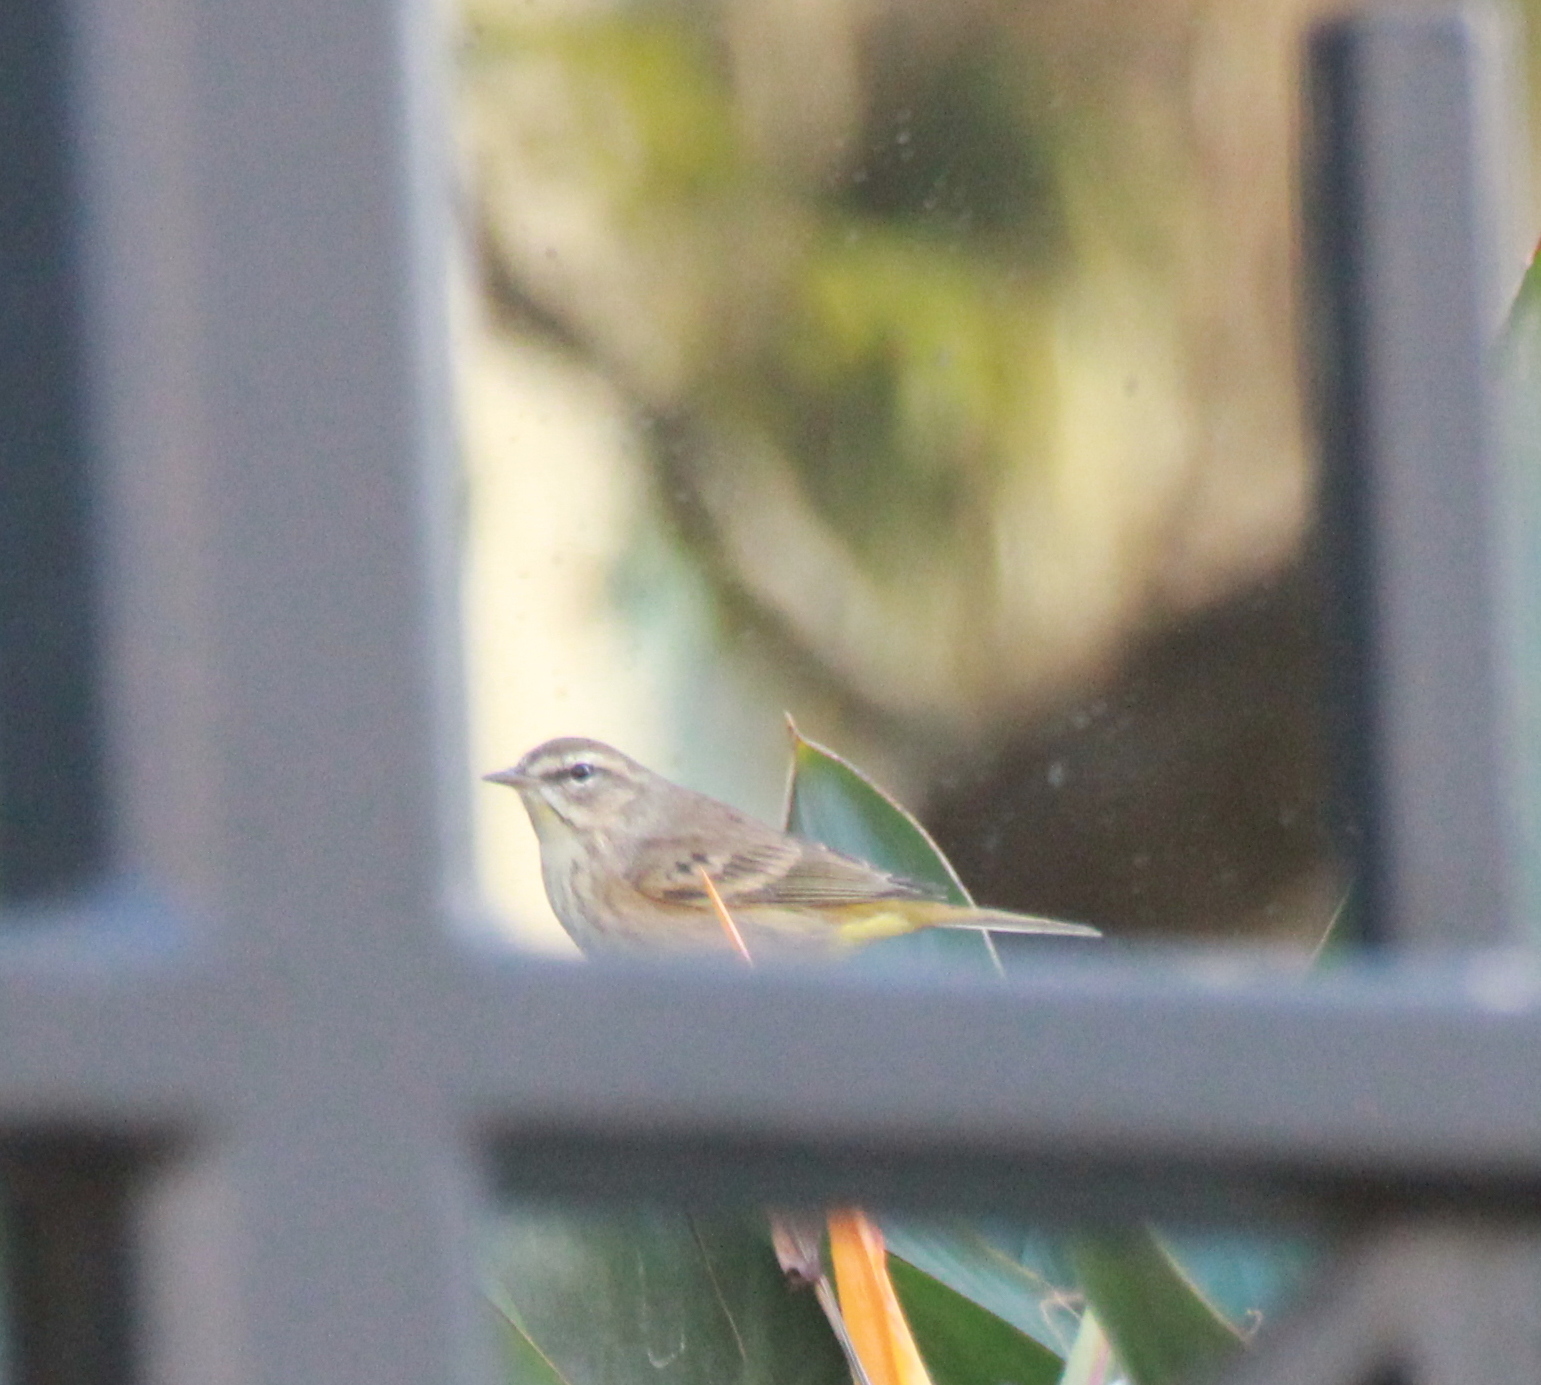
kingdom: Animalia
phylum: Chordata
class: Aves
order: Passeriformes
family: Parulidae
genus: Setophaga
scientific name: Setophaga palmarum
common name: Palm warbler
